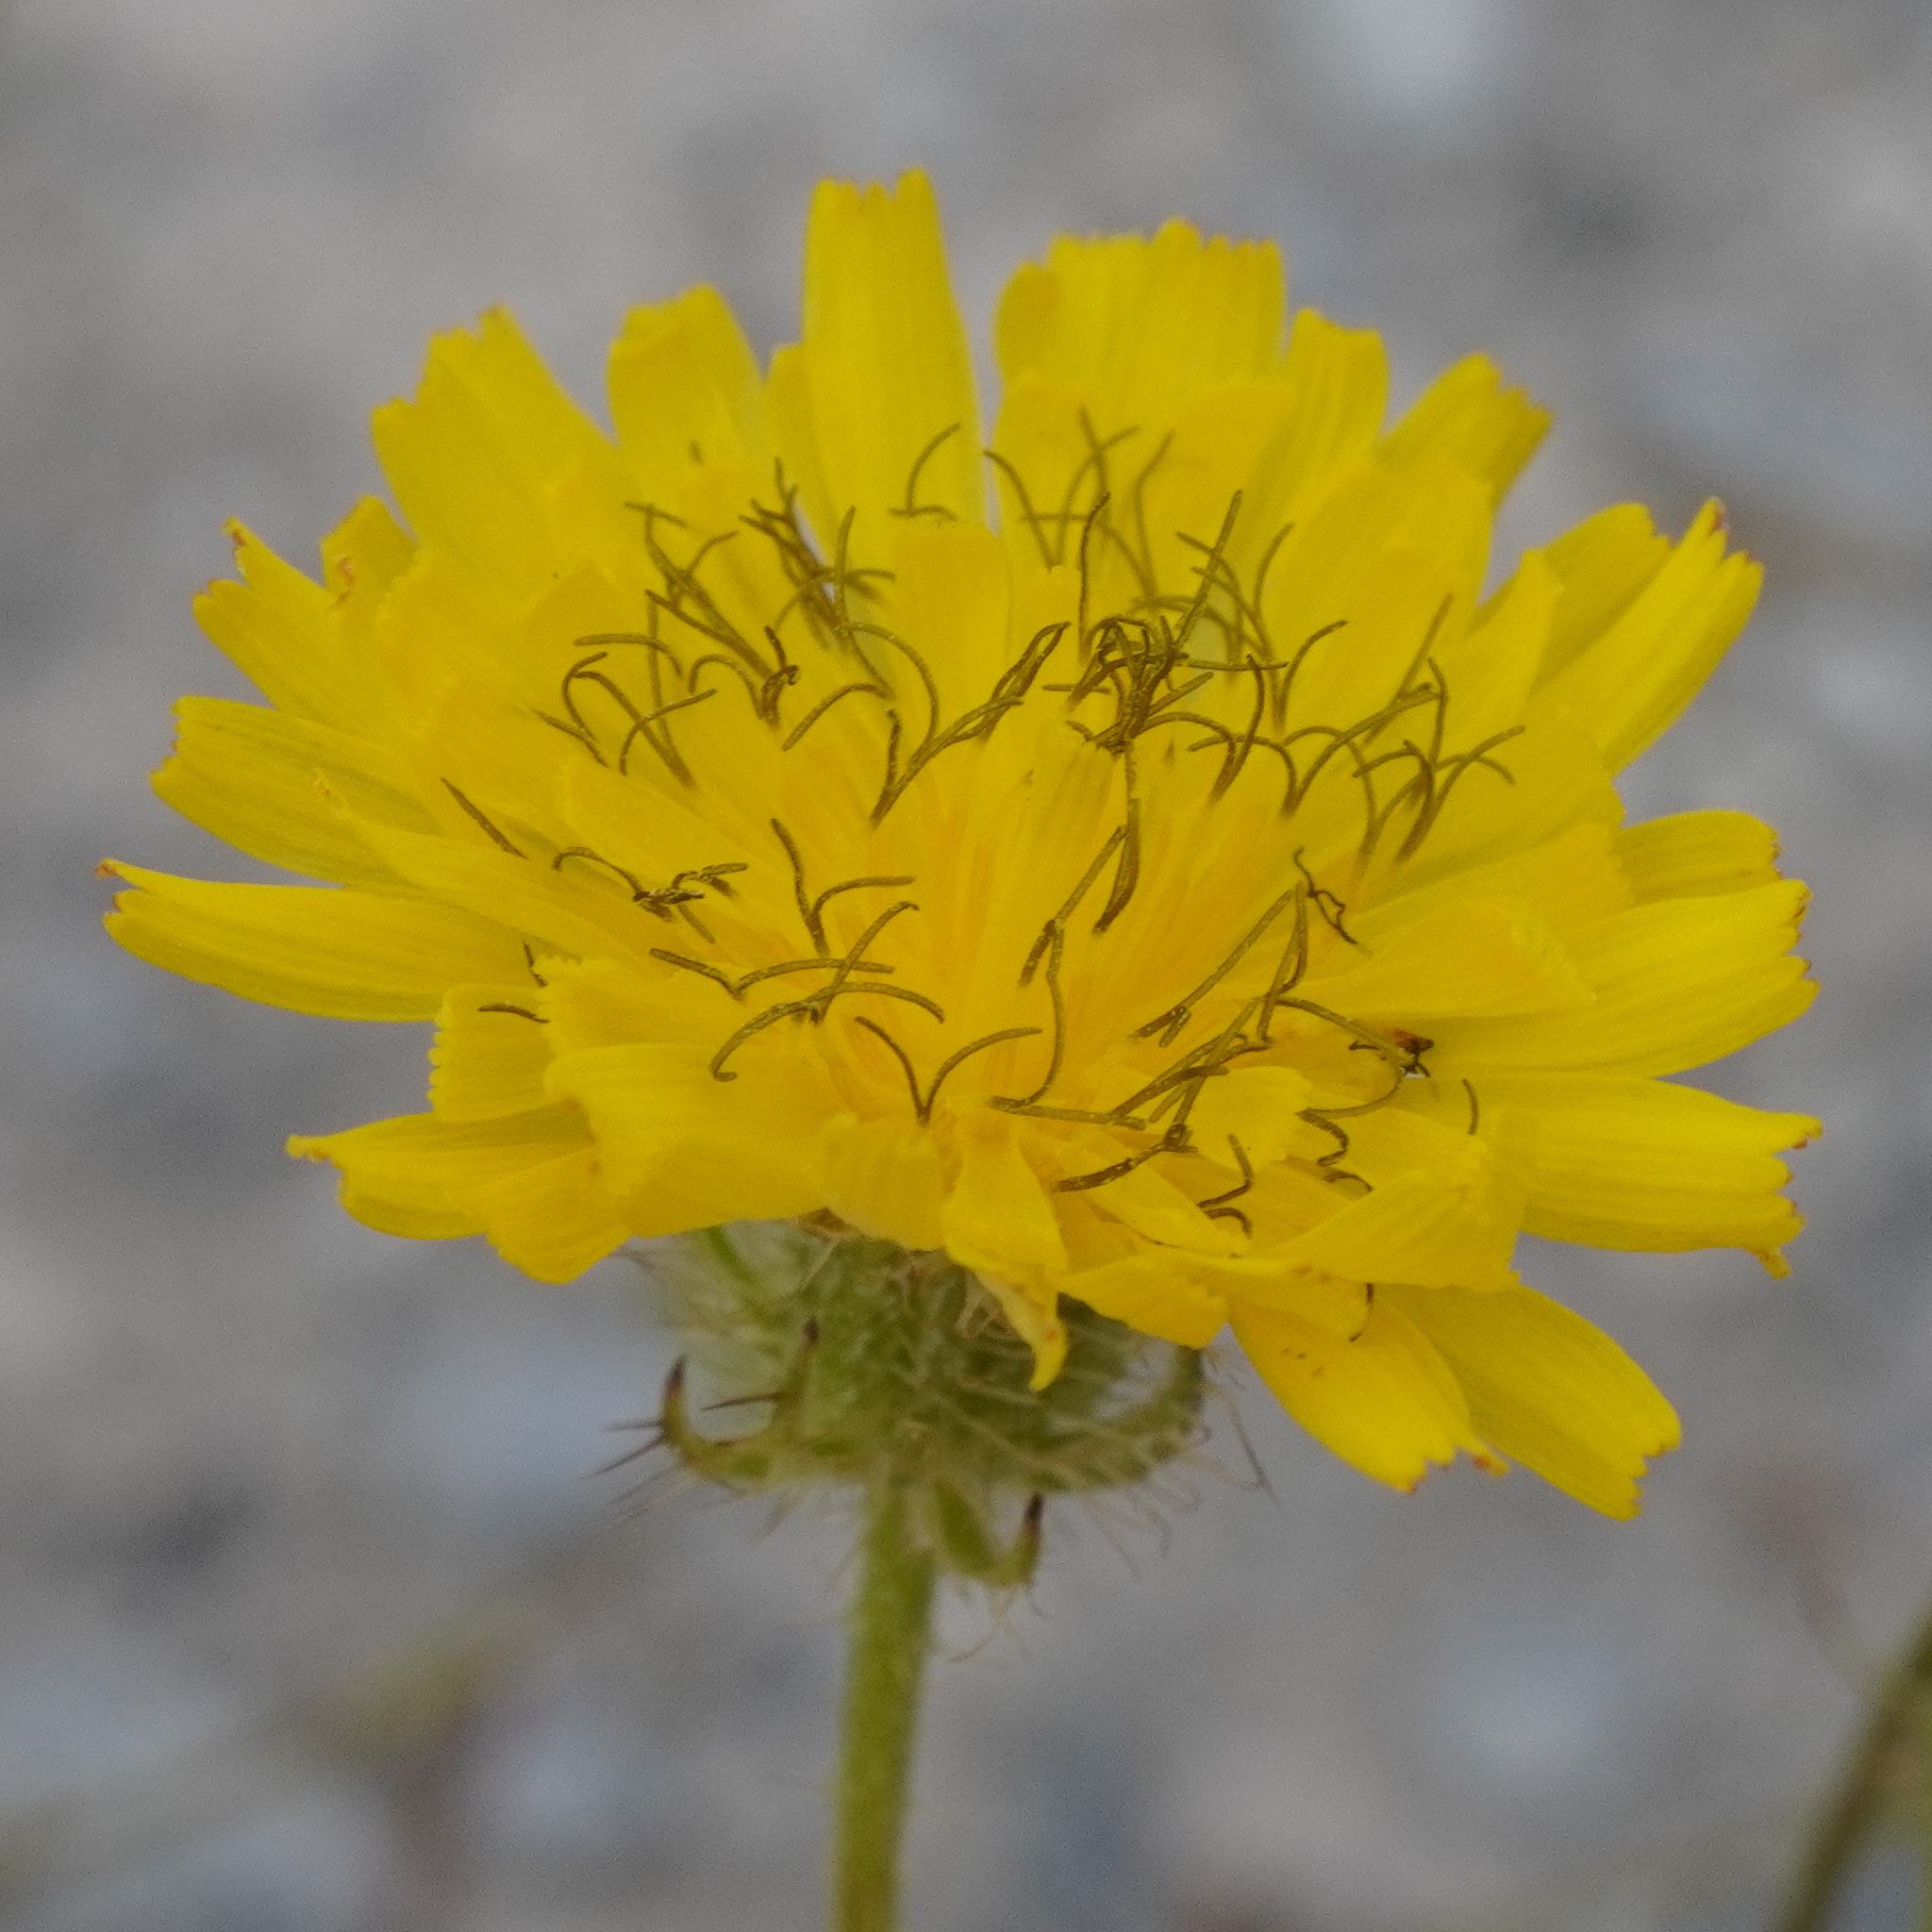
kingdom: Plantae
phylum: Tracheophyta
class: Magnoliopsida
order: Asterales
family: Asteraceae
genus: Crepis
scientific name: Crepis setosa
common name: Bristly hawk's-beard
